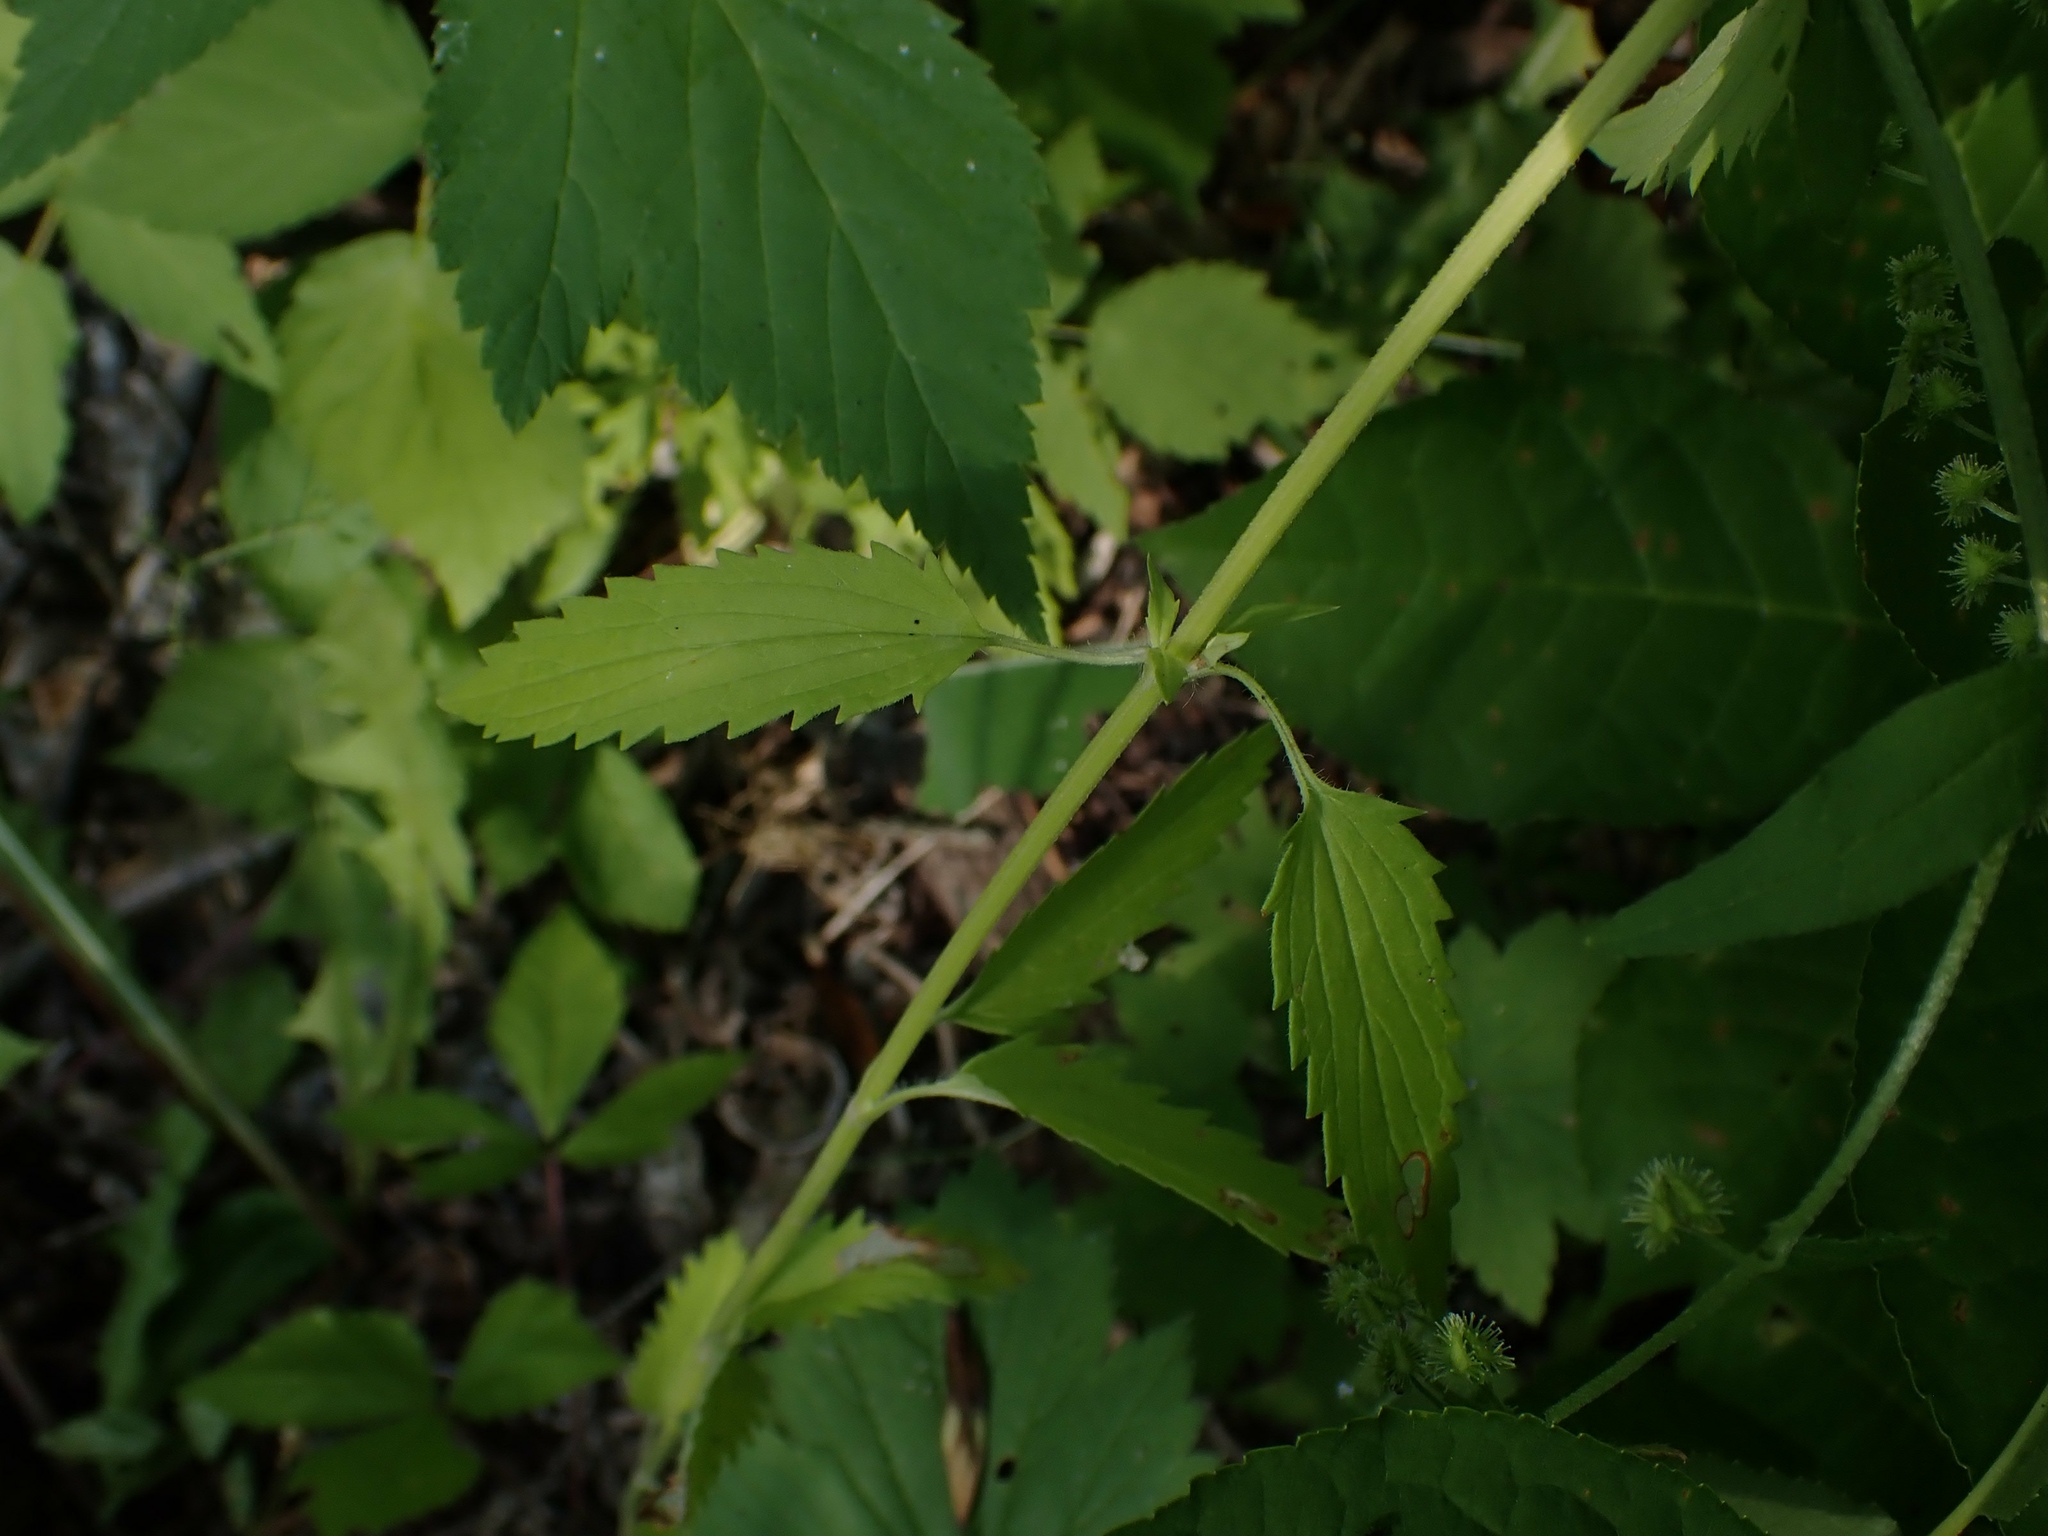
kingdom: Plantae
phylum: Tracheophyta
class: Magnoliopsida
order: Lamiales
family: Lamiaceae
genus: Dracocephalum
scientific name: Dracocephalum parviflorum
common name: American dragonhead
